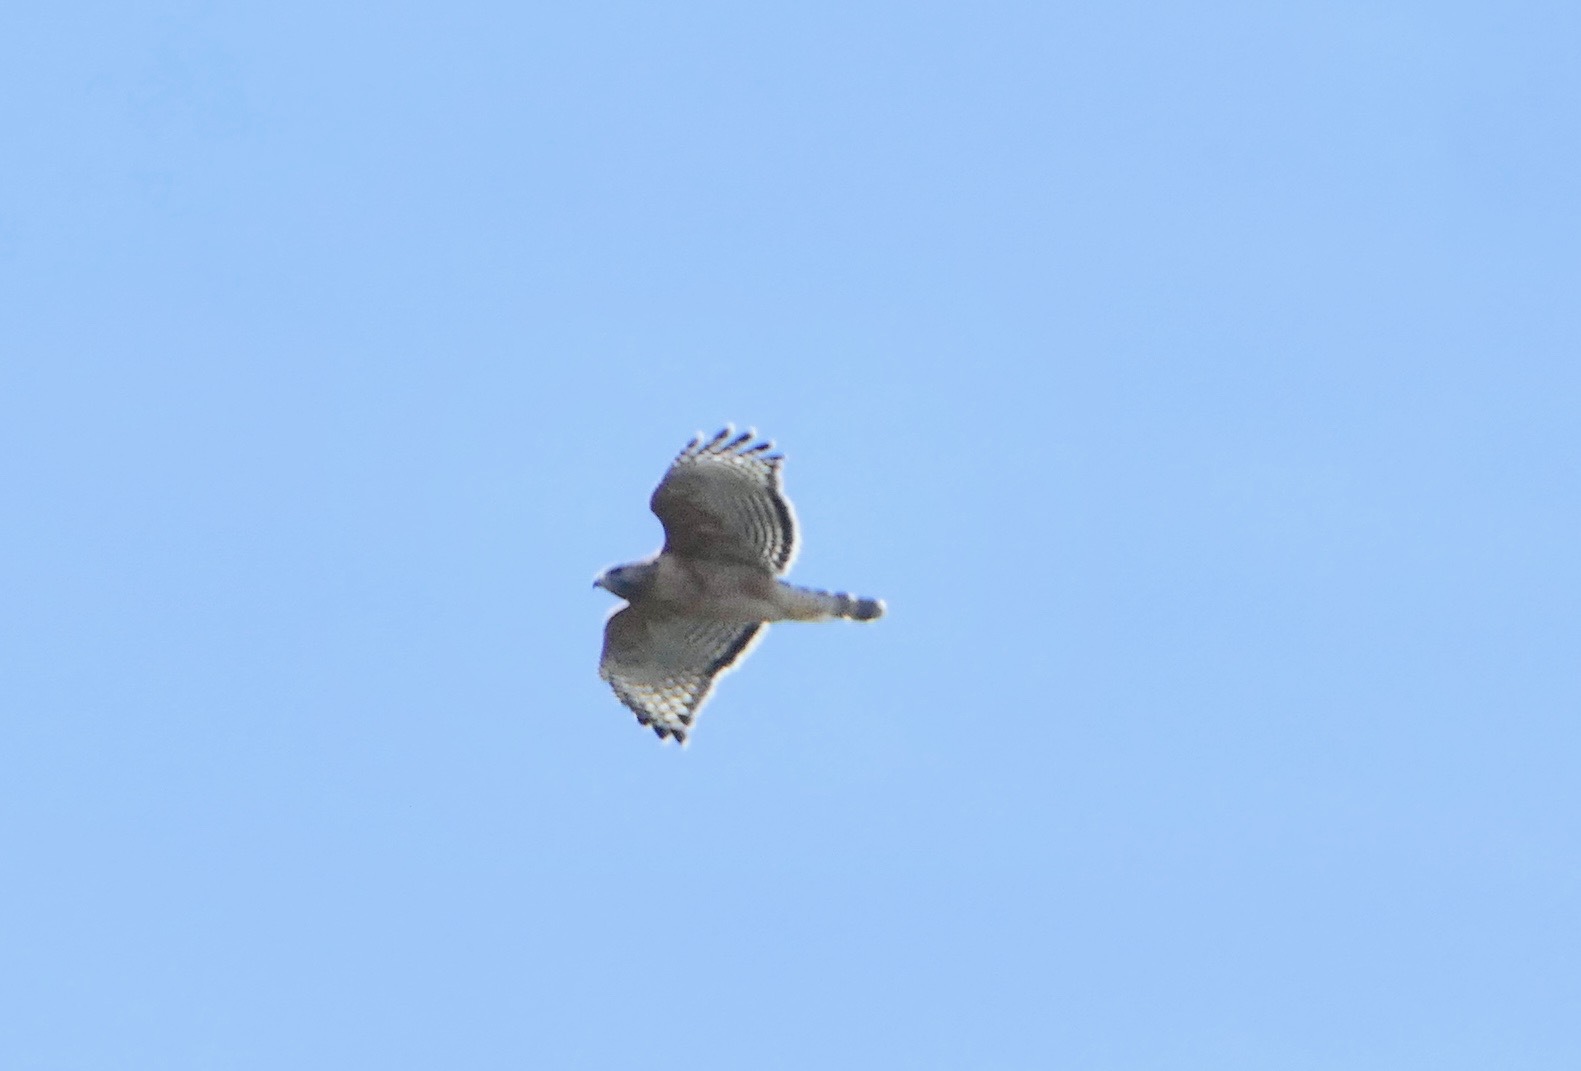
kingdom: Animalia
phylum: Chordata
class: Aves
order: Accipitriformes
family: Accipitridae
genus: Buteo
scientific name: Buteo lineatus
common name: Red-shouldered hawk
